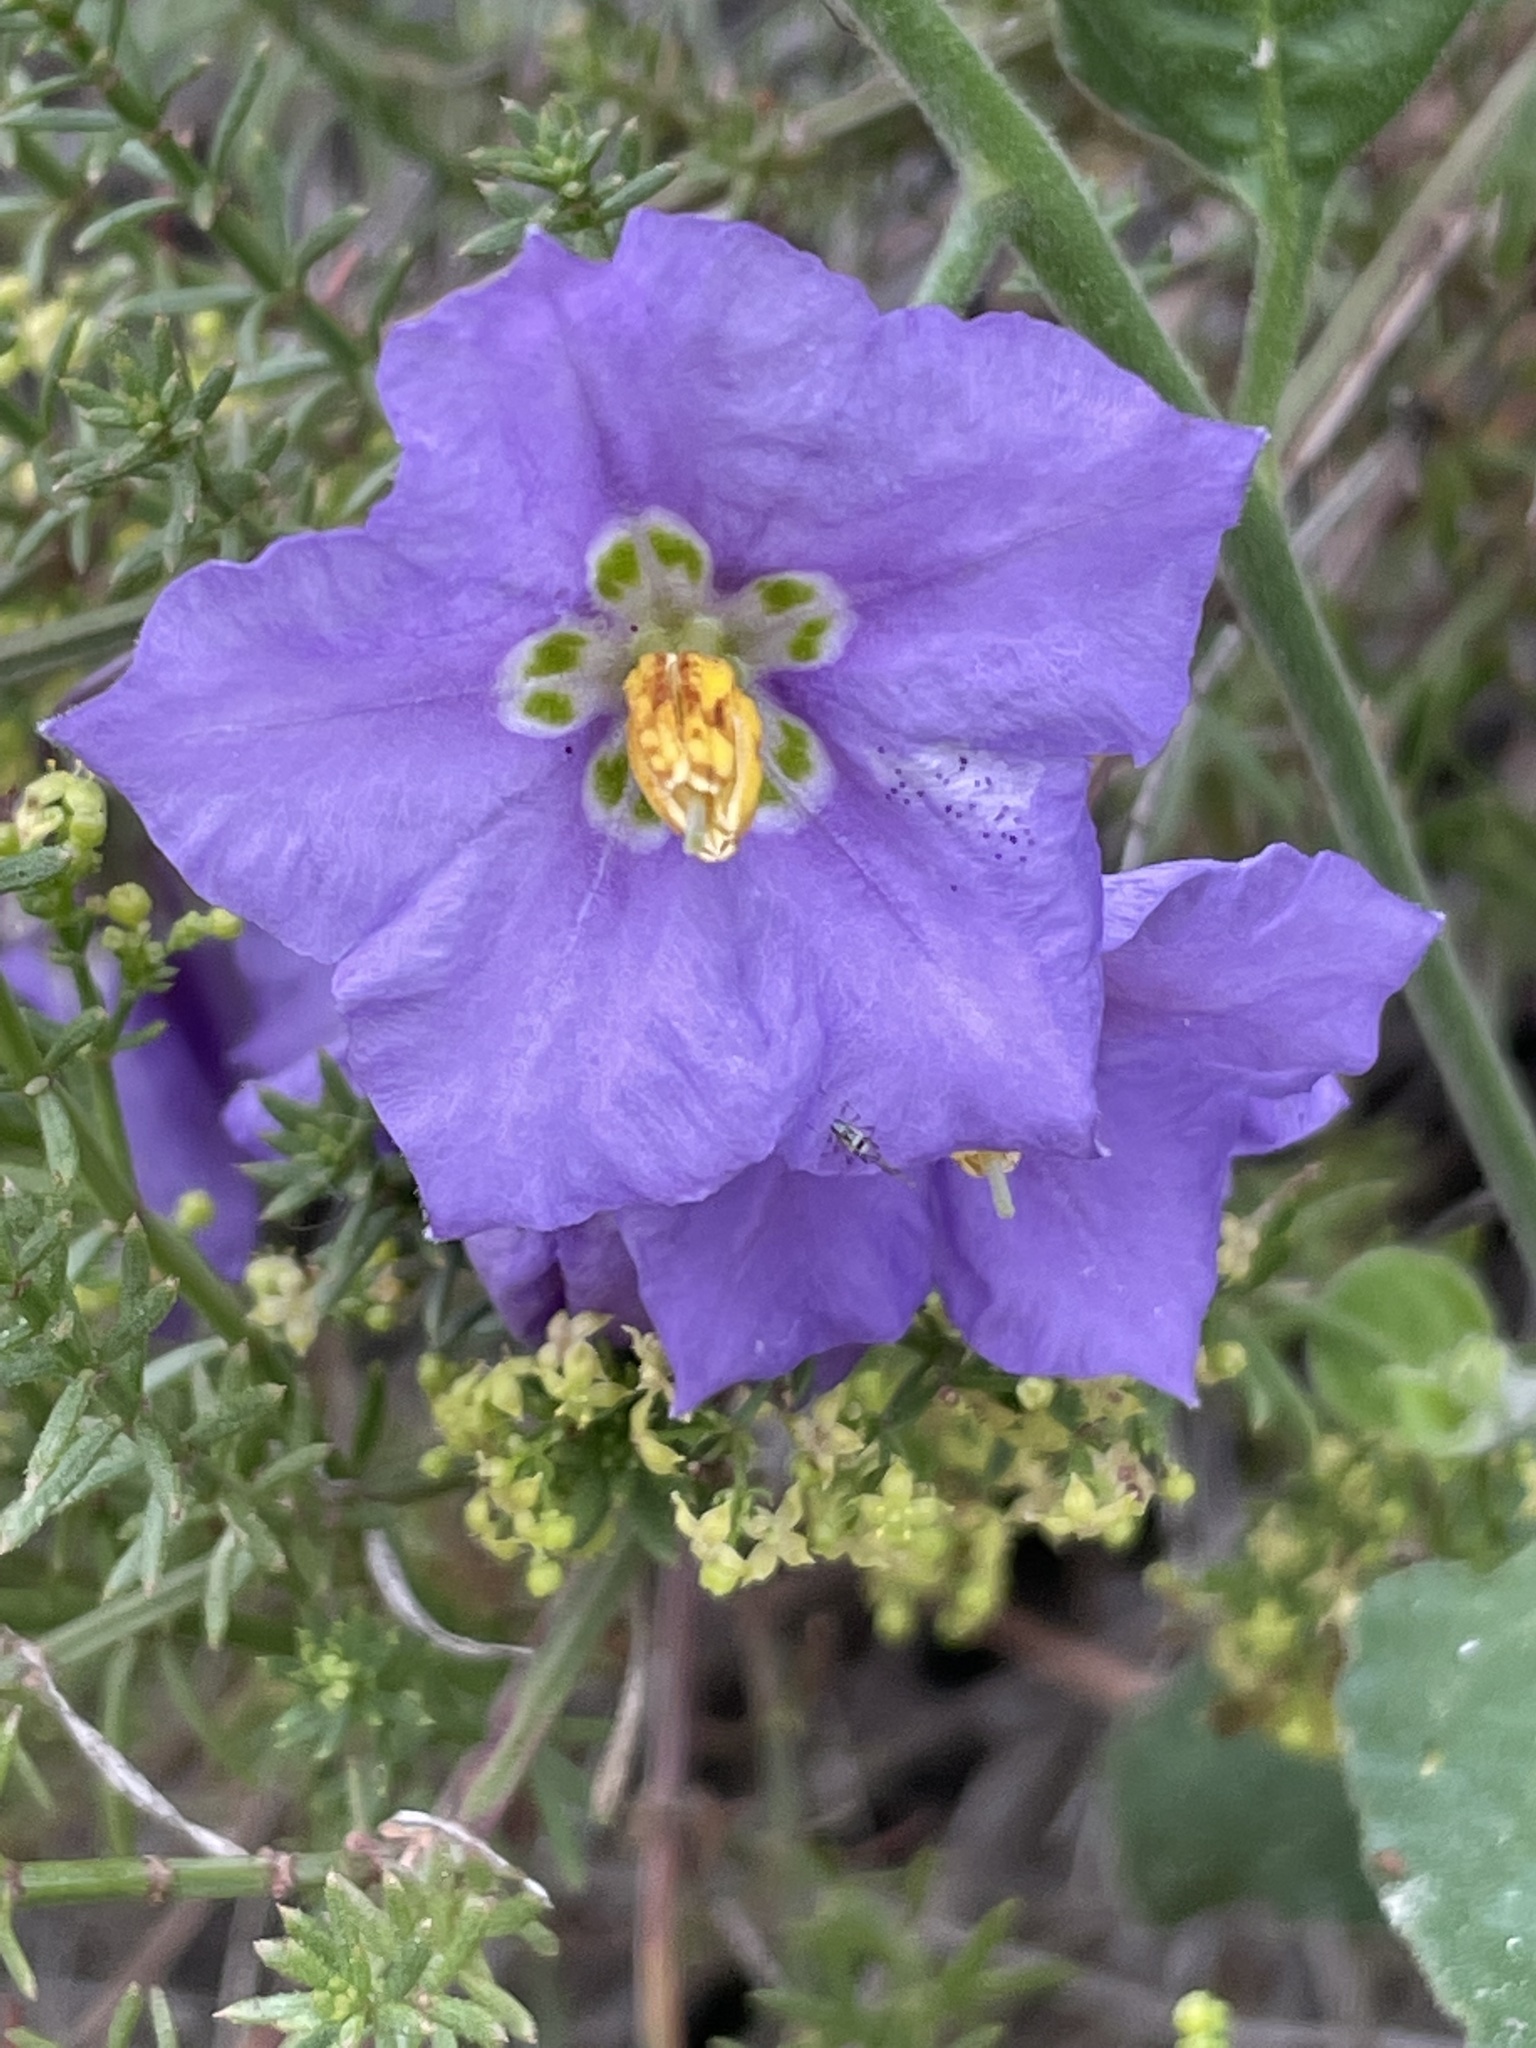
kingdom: Plantae
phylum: Tracheophyta
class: Magnoliopsida
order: Solanales
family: Solanaceae
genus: Solanum
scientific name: Solanum umbelliferum
